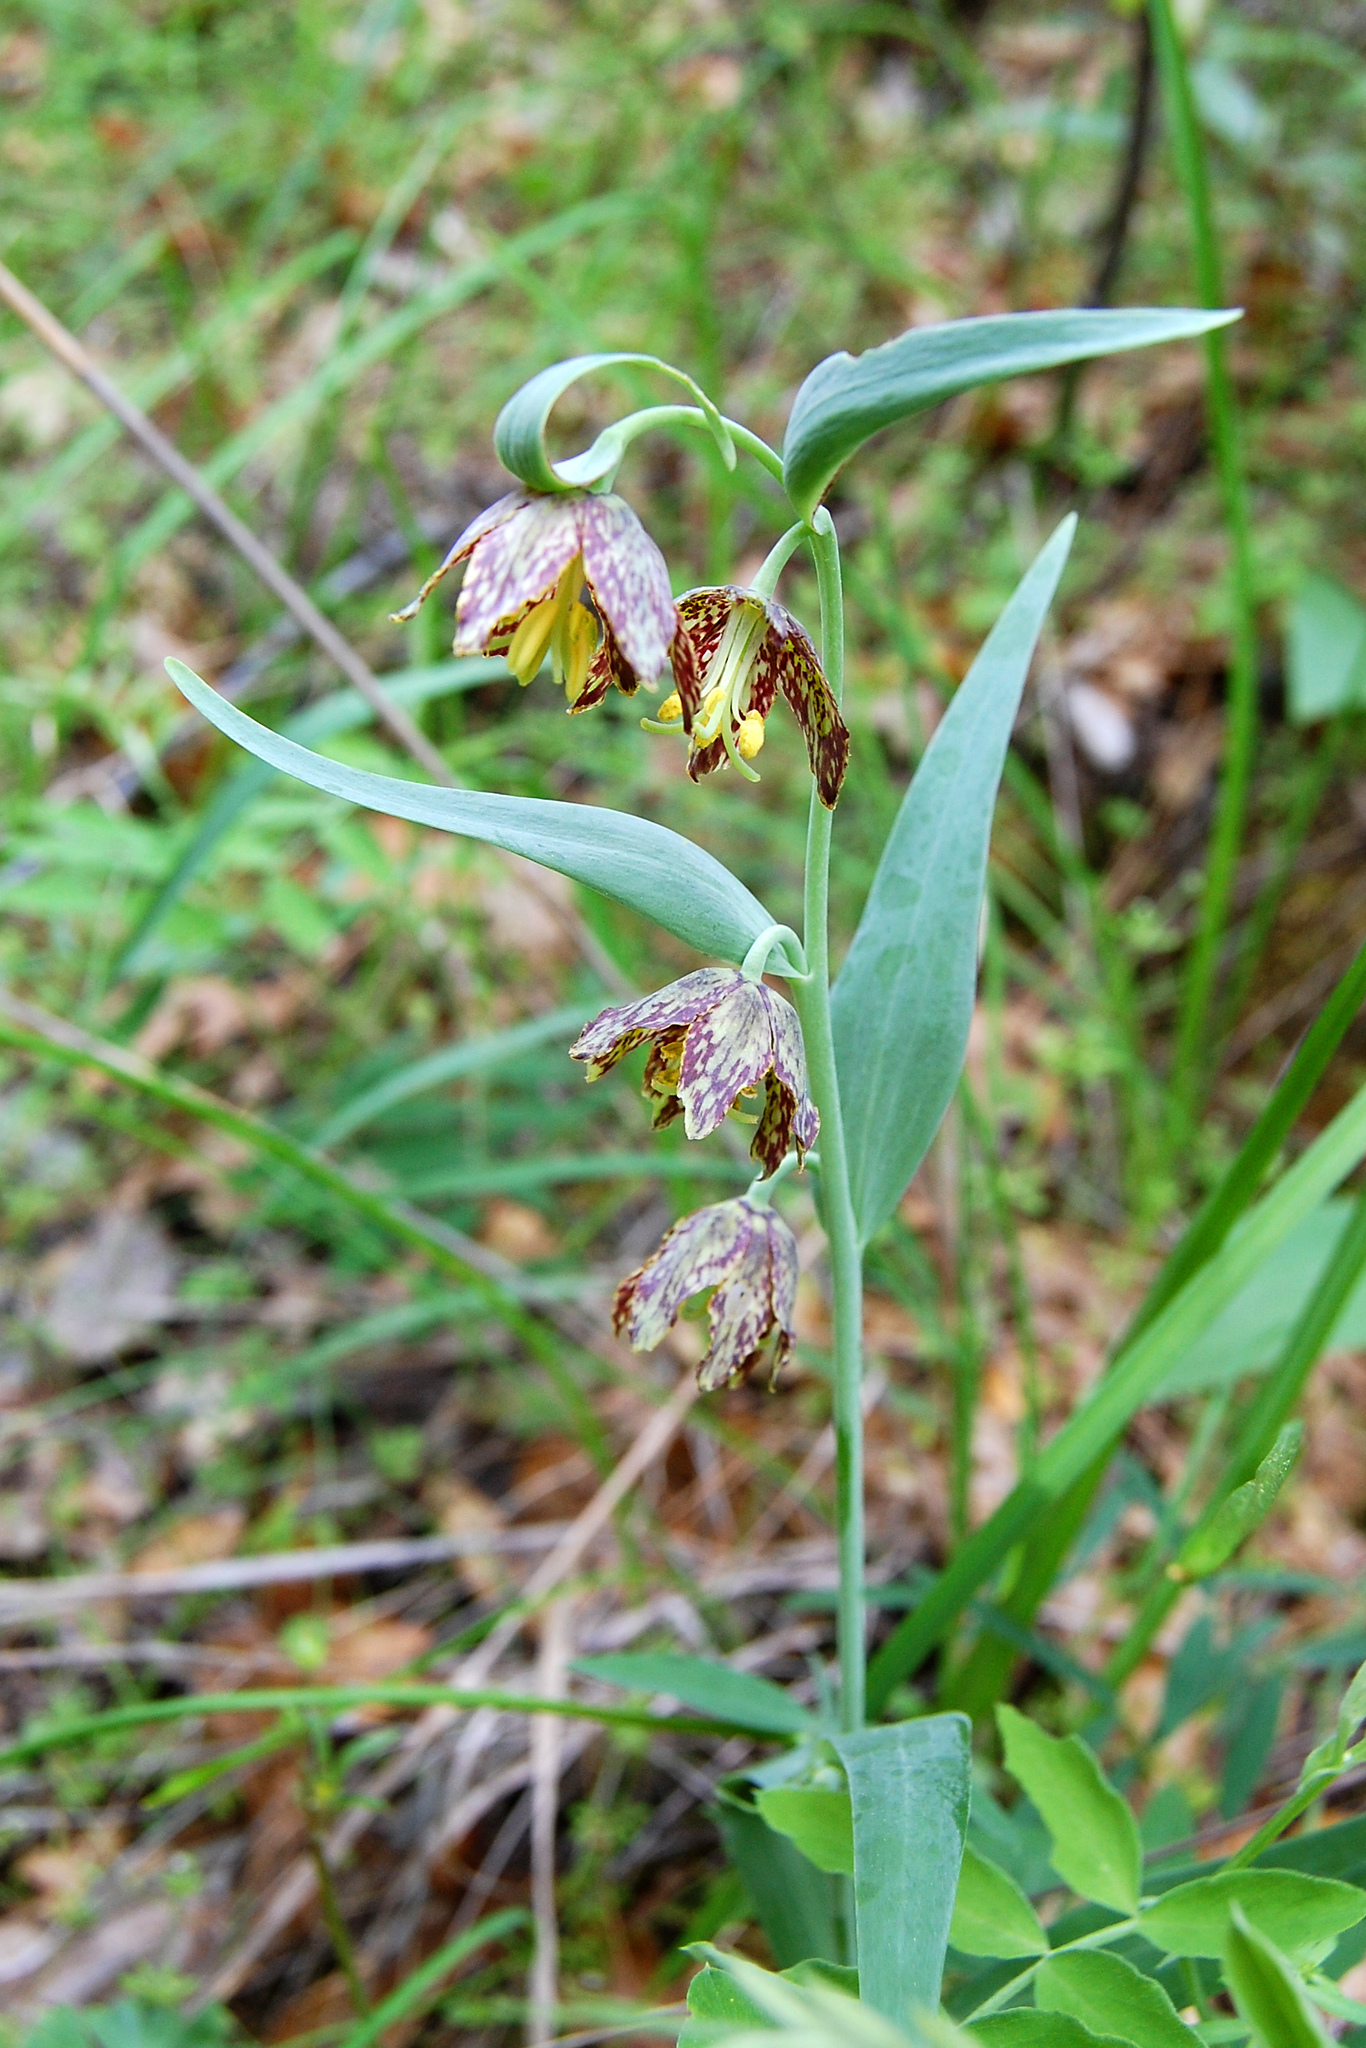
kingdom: Plantae
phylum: Tracheophyta
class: Liliopsida
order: Liliales
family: Liliaceae
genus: Fritillaria
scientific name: Fritillaria affinis
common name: Ojai fritillary
